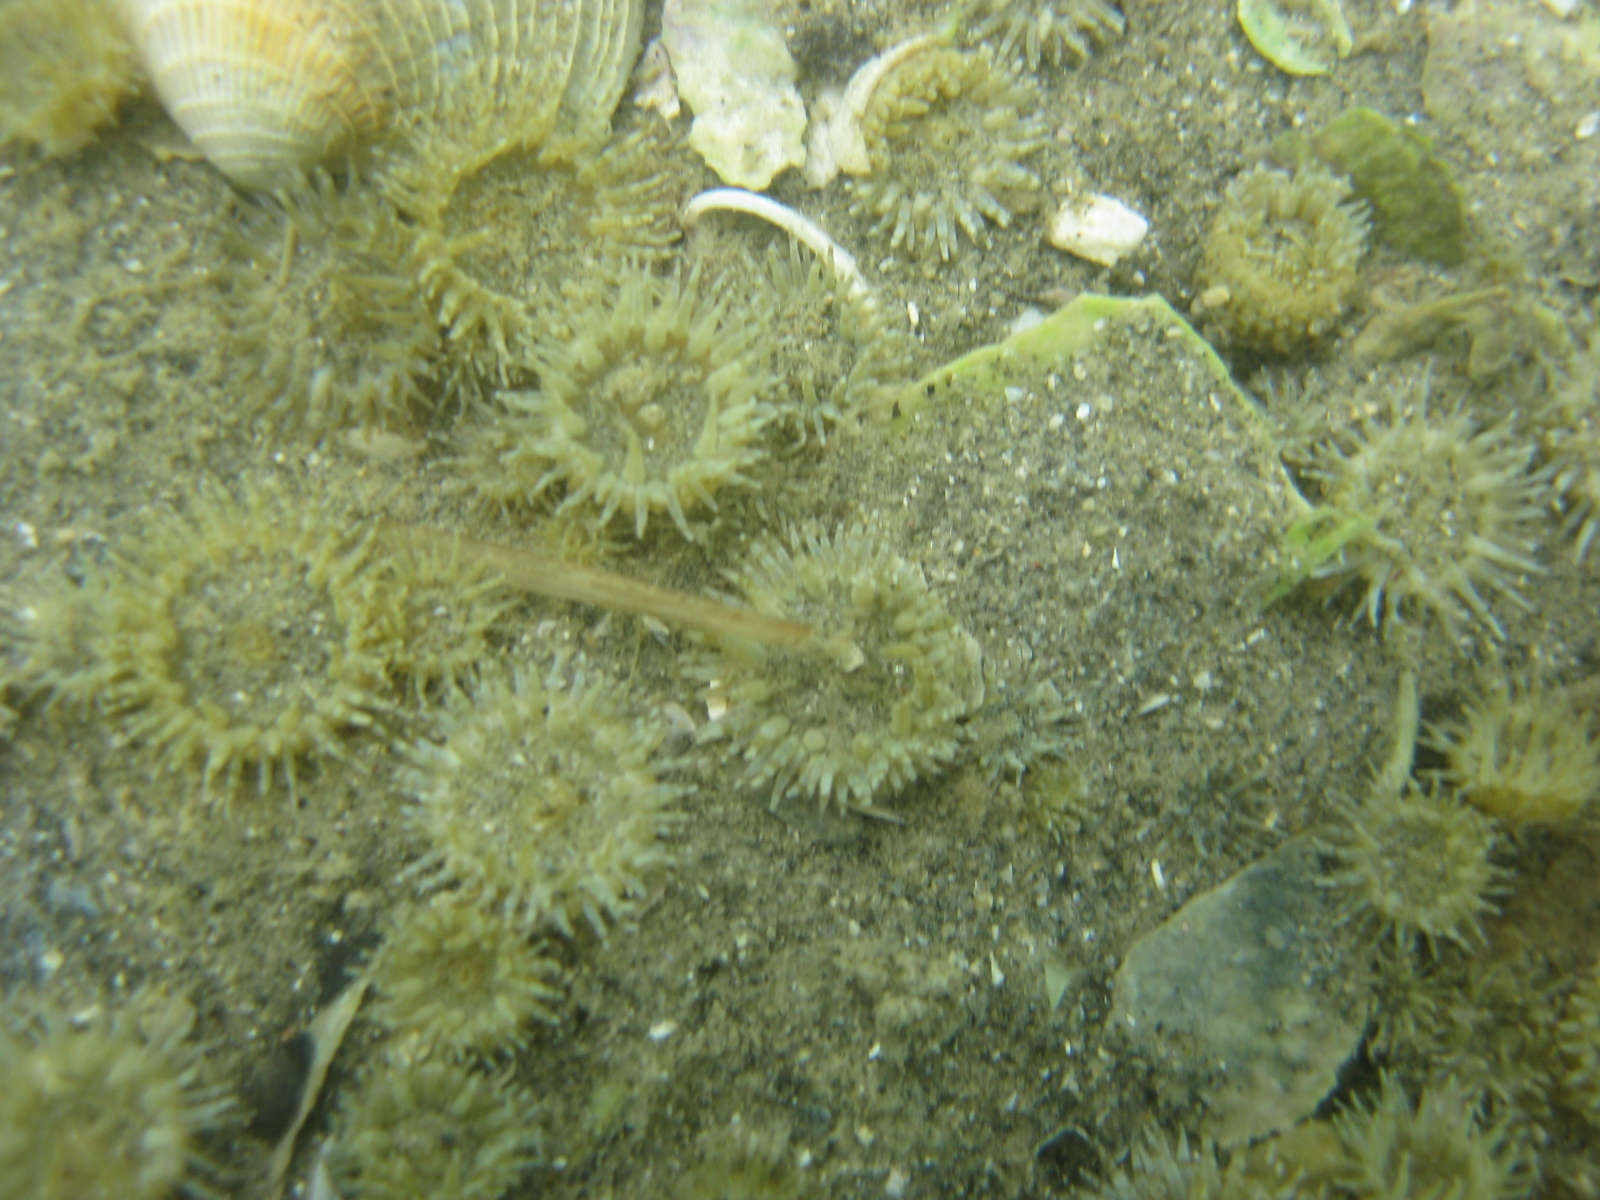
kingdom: Animalia
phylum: Cnidaria
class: Anthozoa
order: Actiniaria
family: Actiniidae
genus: Anthopleura
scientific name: Anthopleura hermaphroditica
